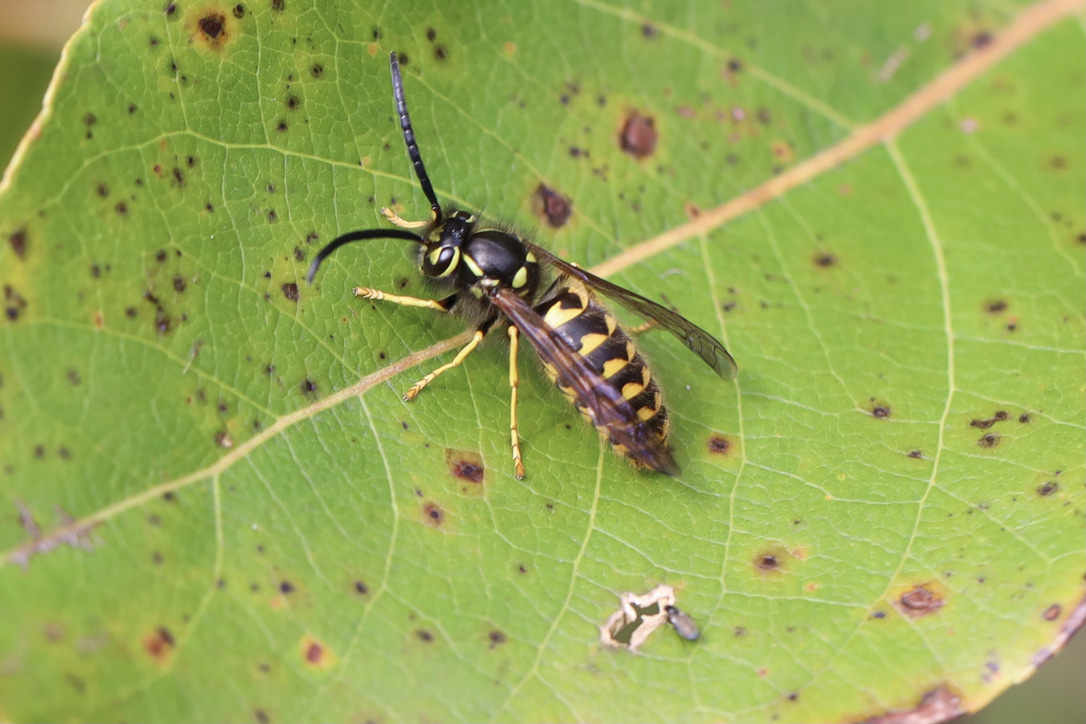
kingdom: Animalia
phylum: Arthropoda
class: Insecta
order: Hymenoptera
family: Vespidae
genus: Vespula
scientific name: Vespula pensylvanica
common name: Western yellowjacket
